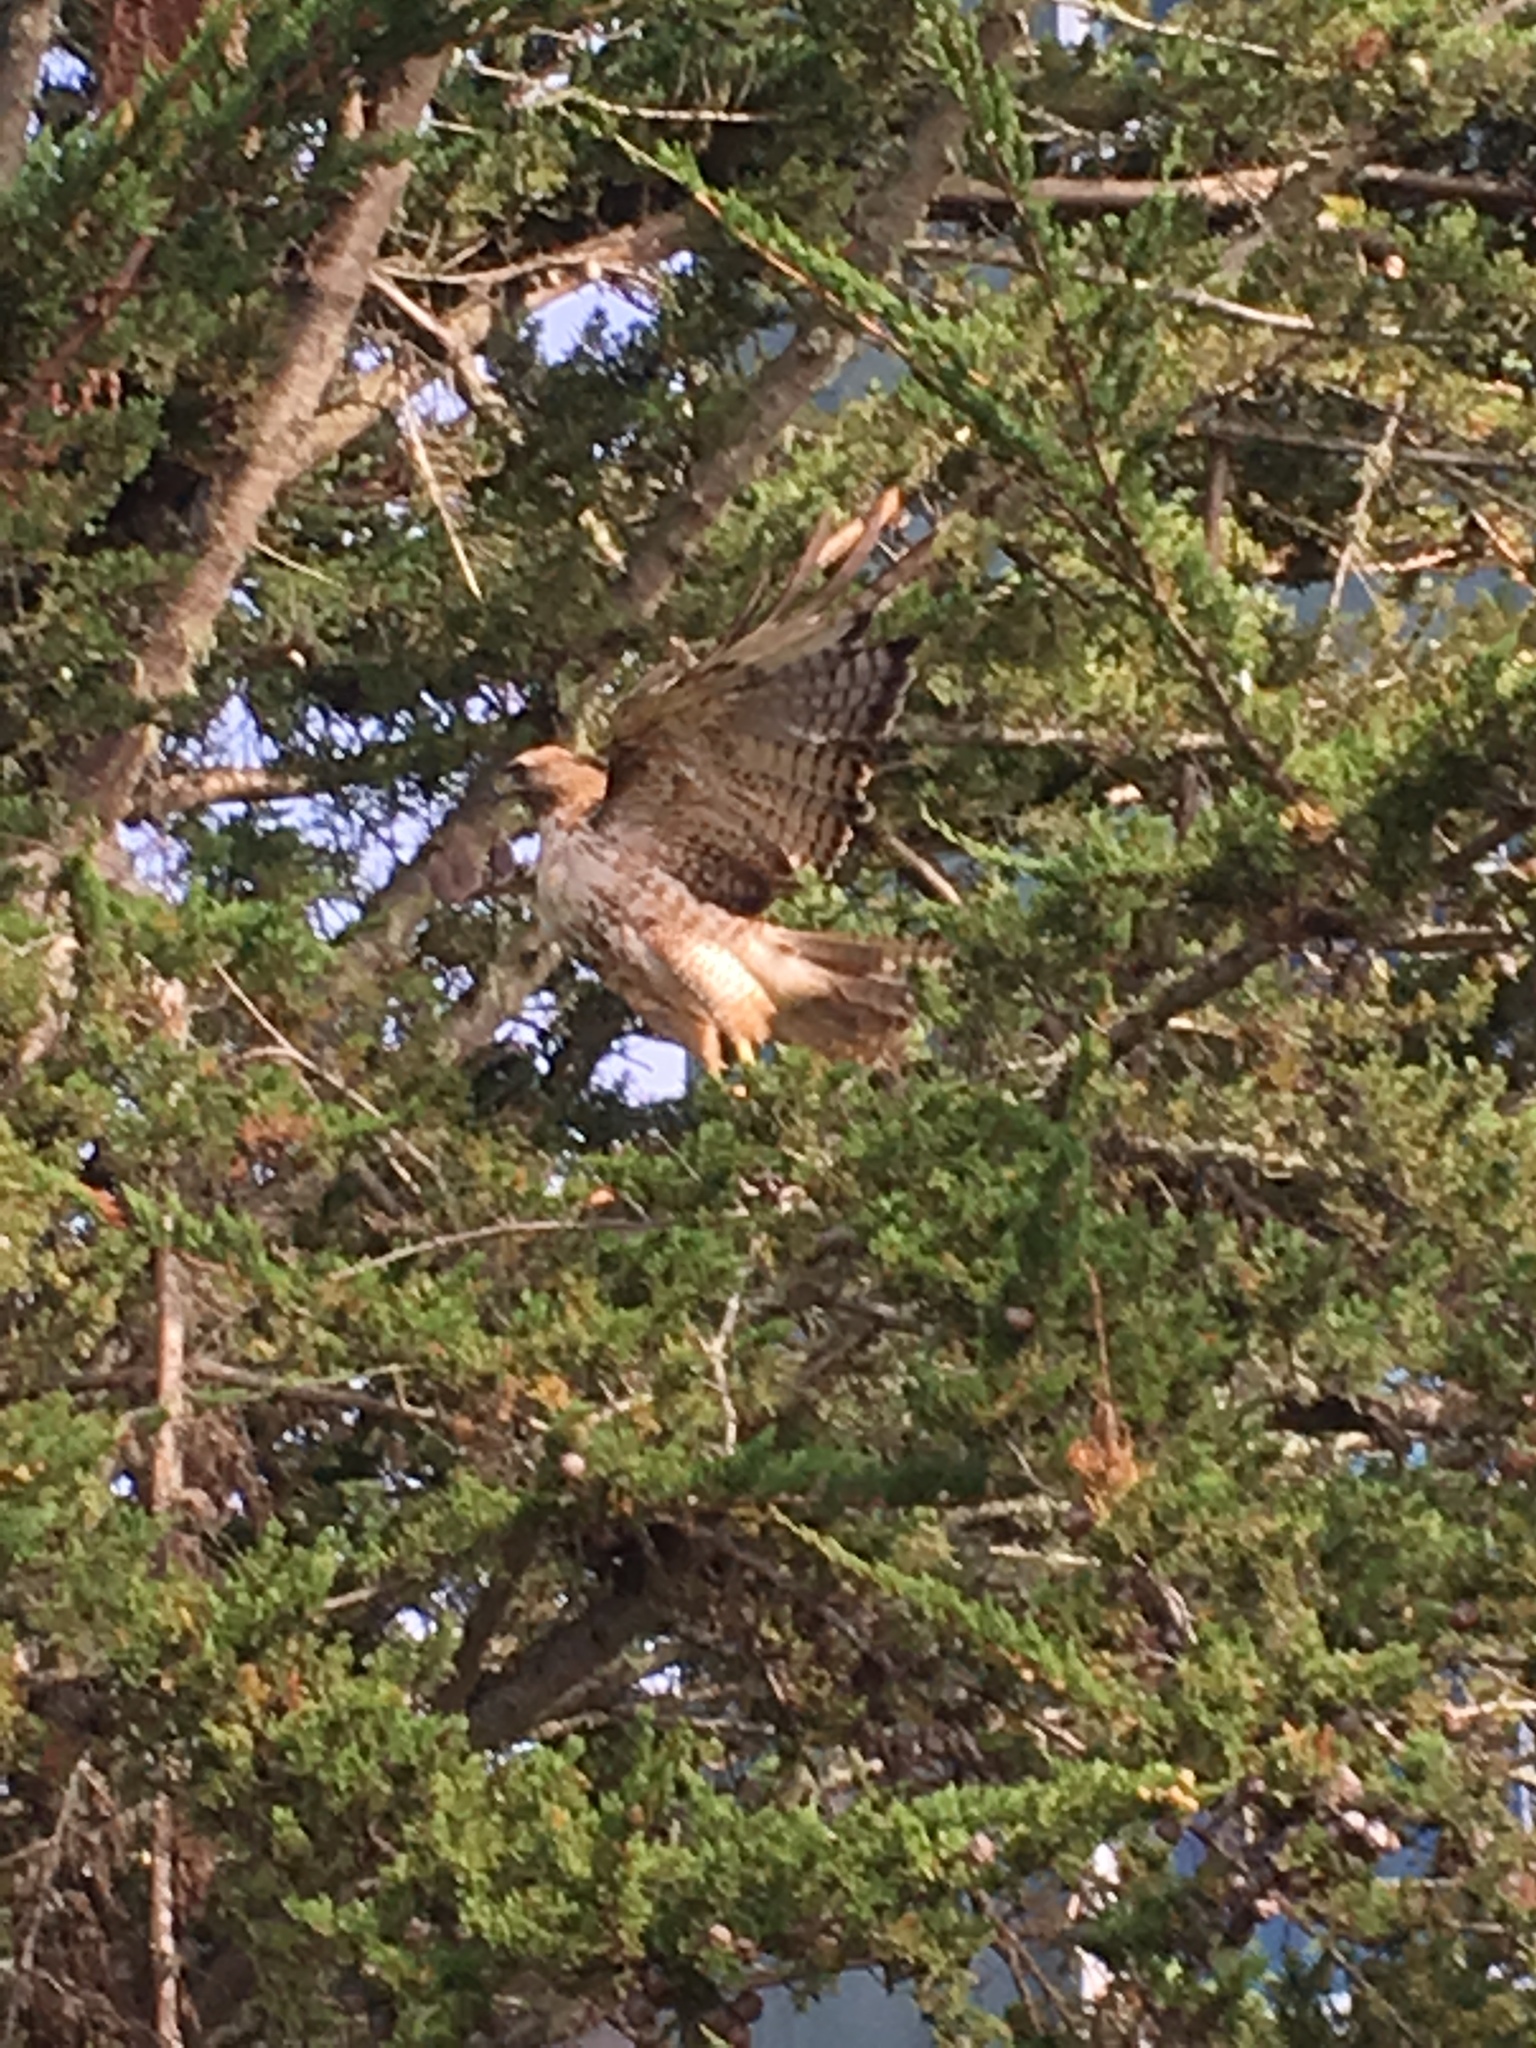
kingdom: Animalia
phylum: Chordata
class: Aves
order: Accipitriformes
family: Accipitridae
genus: Buteo
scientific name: Buteo jamaicensis
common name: Red-tailed hawk
